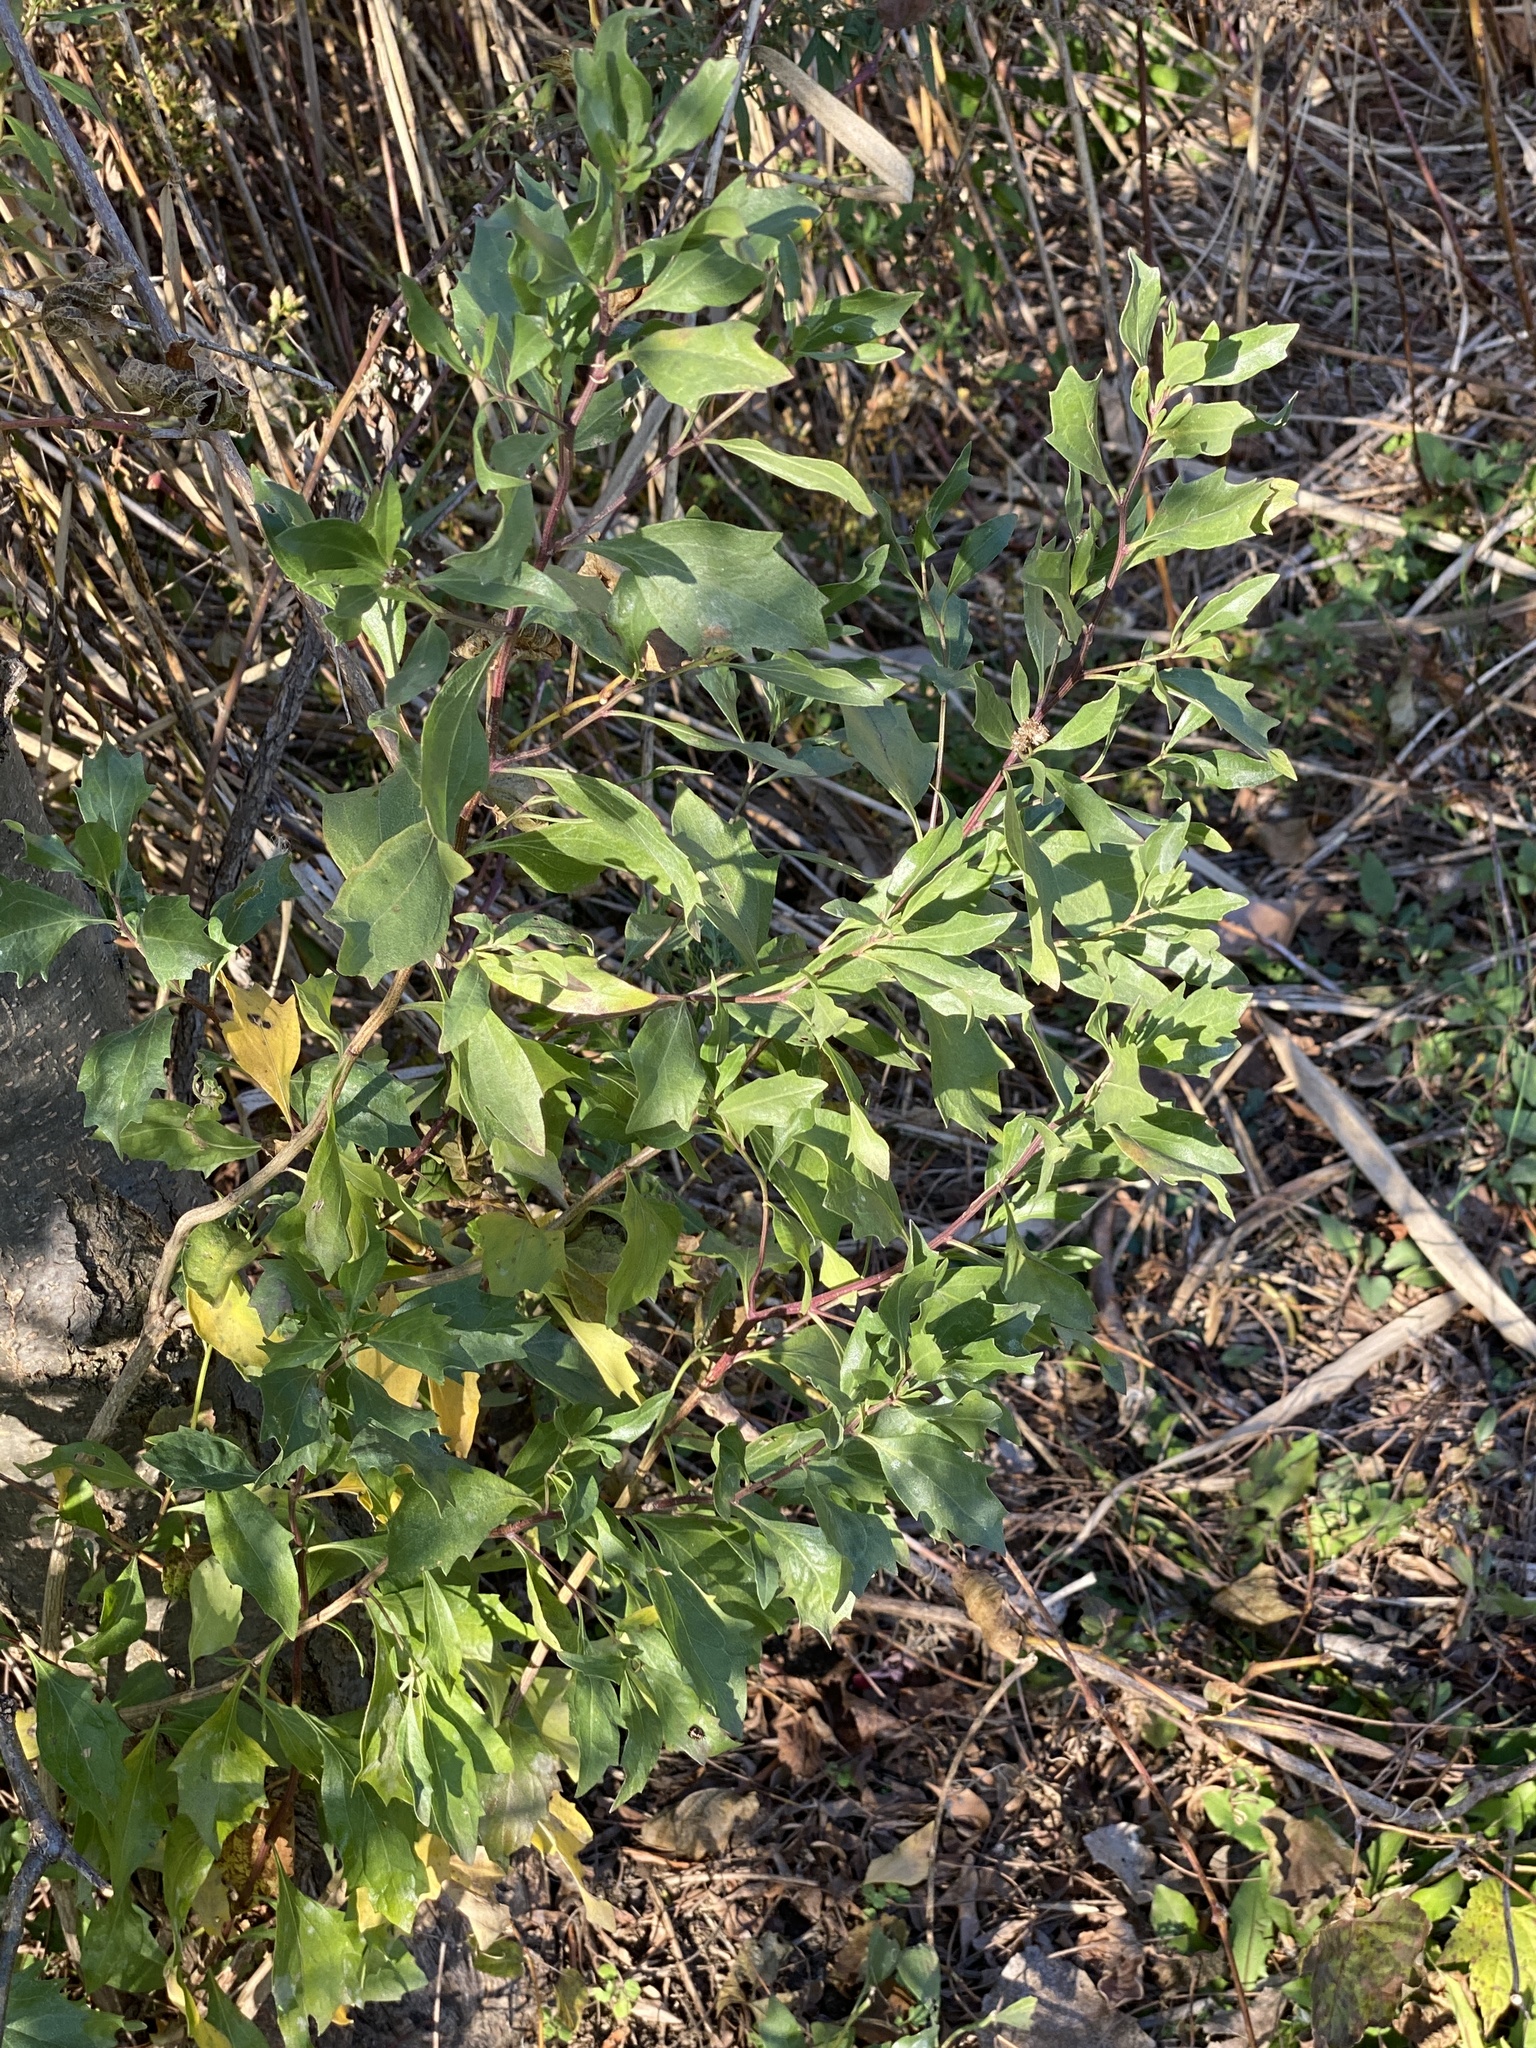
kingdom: Plantae
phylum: Tracheophyta
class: Magnoliopsida
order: Asterales
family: Asteraceae
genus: Baccharis
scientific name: Baccharis halimifolia
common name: Eastern baccharis
